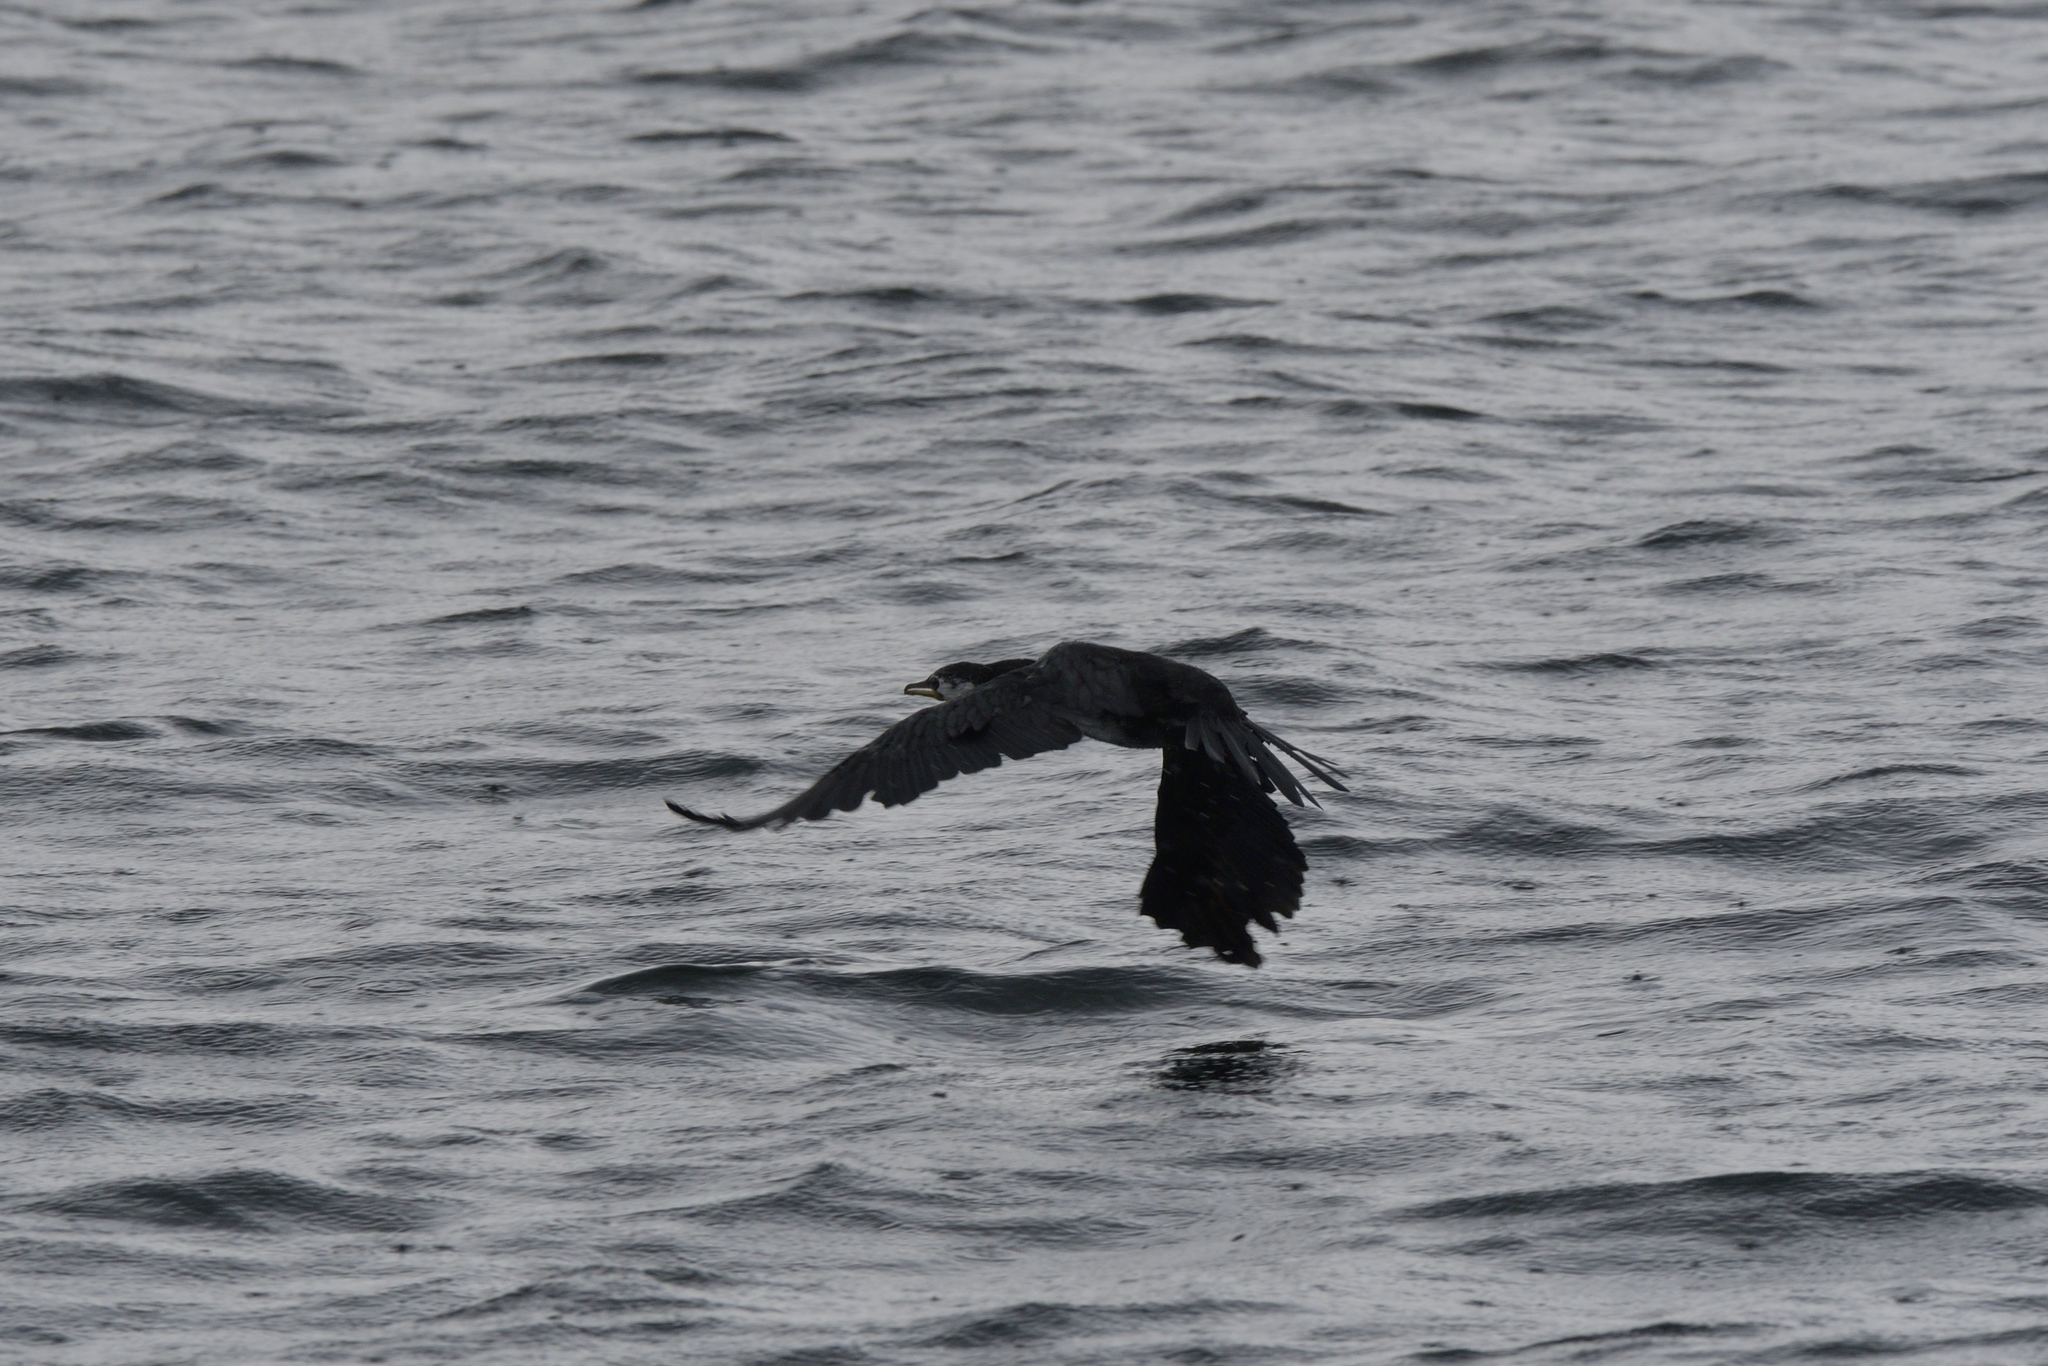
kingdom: Animalia
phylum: Chordata
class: Aves
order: Suliformes
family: Phalacrocoracidae
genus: Microcarbo
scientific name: Microcarbo melanoleucos
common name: Little pied cormorant
